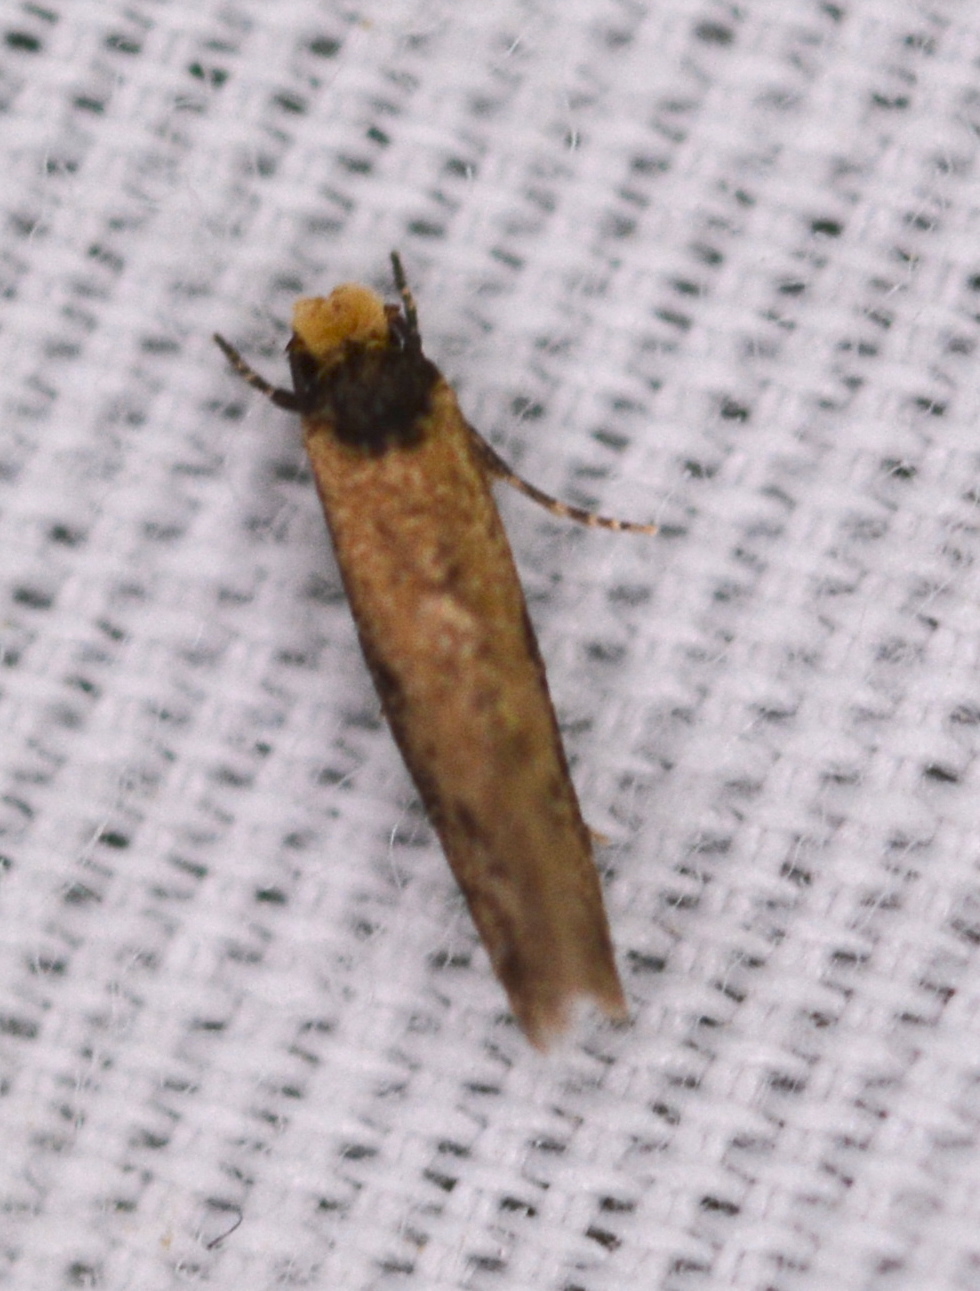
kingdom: Animalia
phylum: Arthropoda
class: Insecta
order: Lepidoptera
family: Meessiidae
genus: Homostinea
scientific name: Homostinea curviliniella
